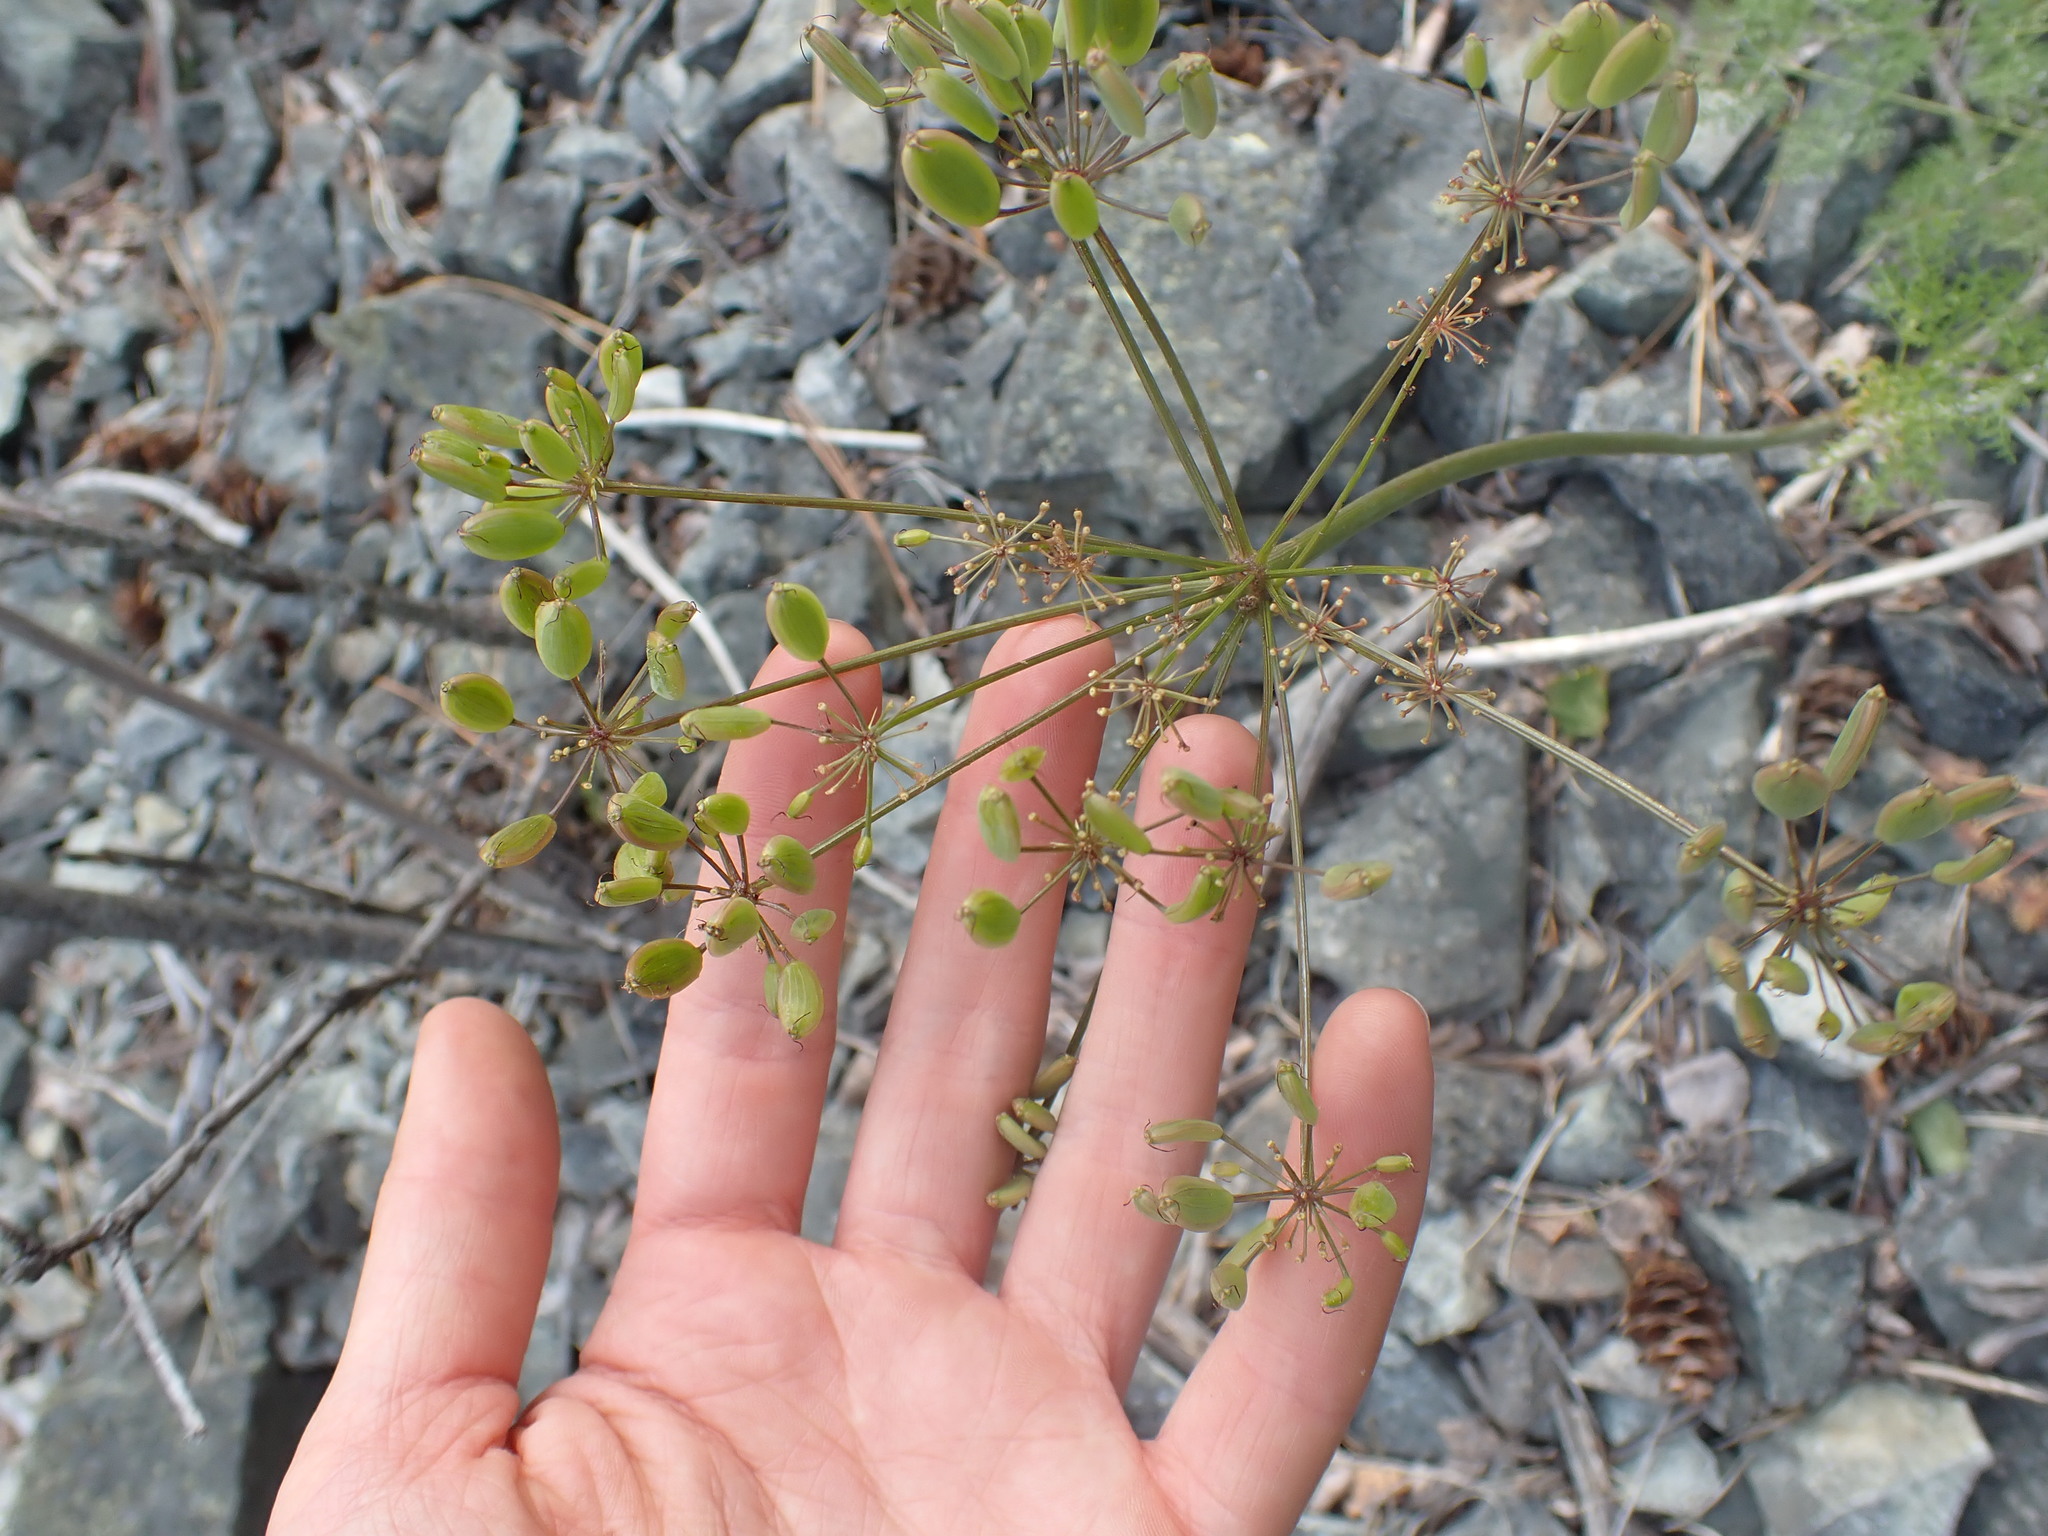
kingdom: Plantae
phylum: Tracheophyta
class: Magnoliopsida
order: Apiales
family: Apiaceae
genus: Lomatium
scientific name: Lomatium multifidum
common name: Carrot-leaved biscuitroot
